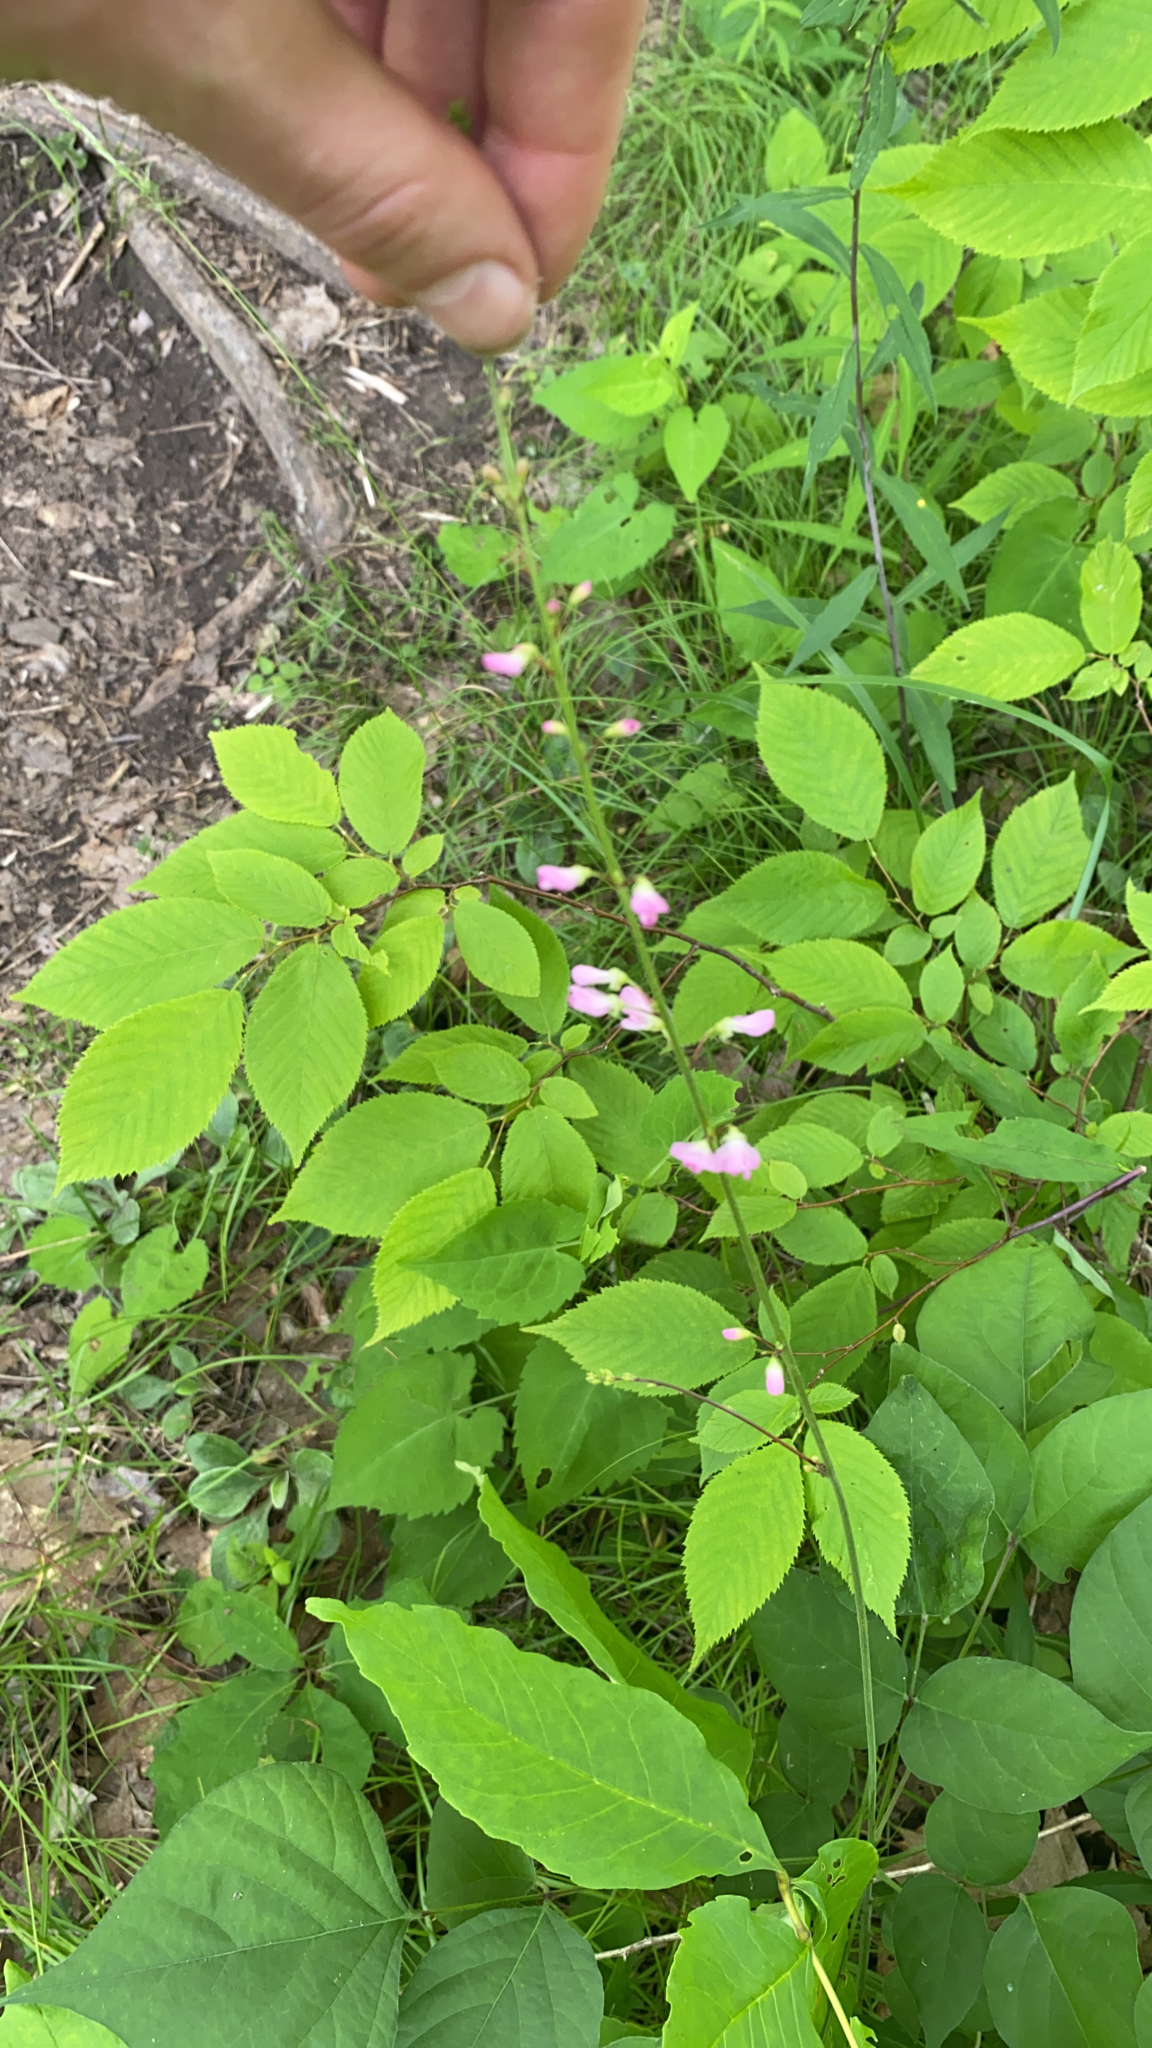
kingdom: Plantae
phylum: Tracheophyta
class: Magnoliopsida
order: Fabales
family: Fabaceae
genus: Hylodesmum
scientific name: Hylodesmum glutinosum
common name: Clustered-leaved tick-trefoil
